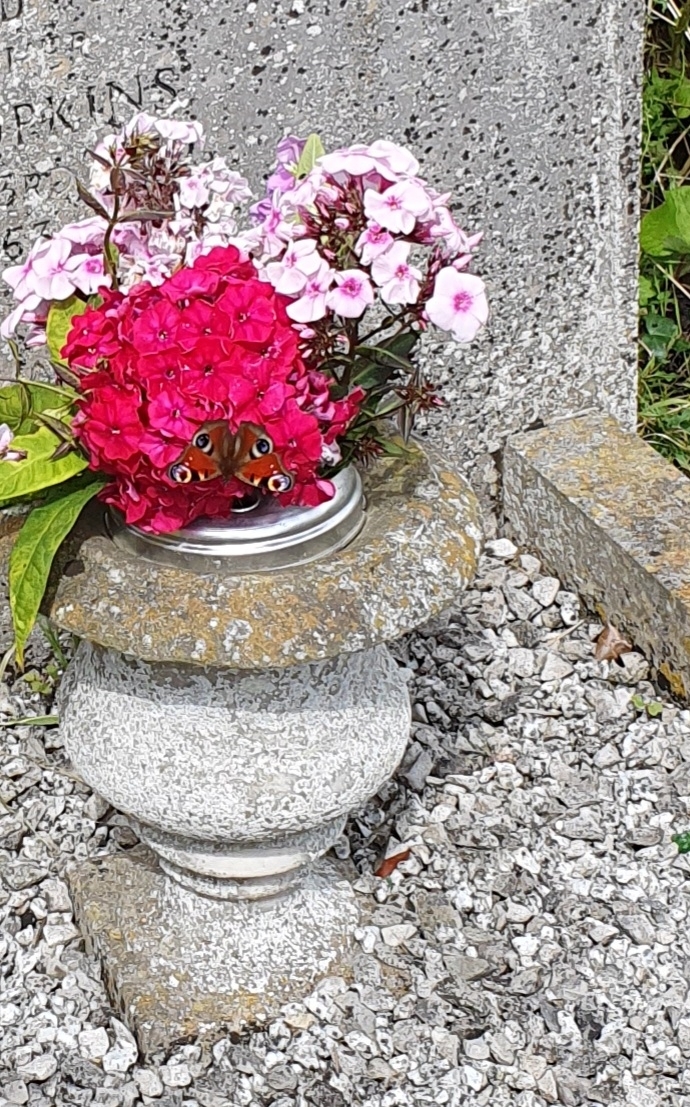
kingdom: Animalia
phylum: Arthropoda
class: Insecta
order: Lepidoptera
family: Nymphalidae
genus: Aglais
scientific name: Aglais io
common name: Peacock
